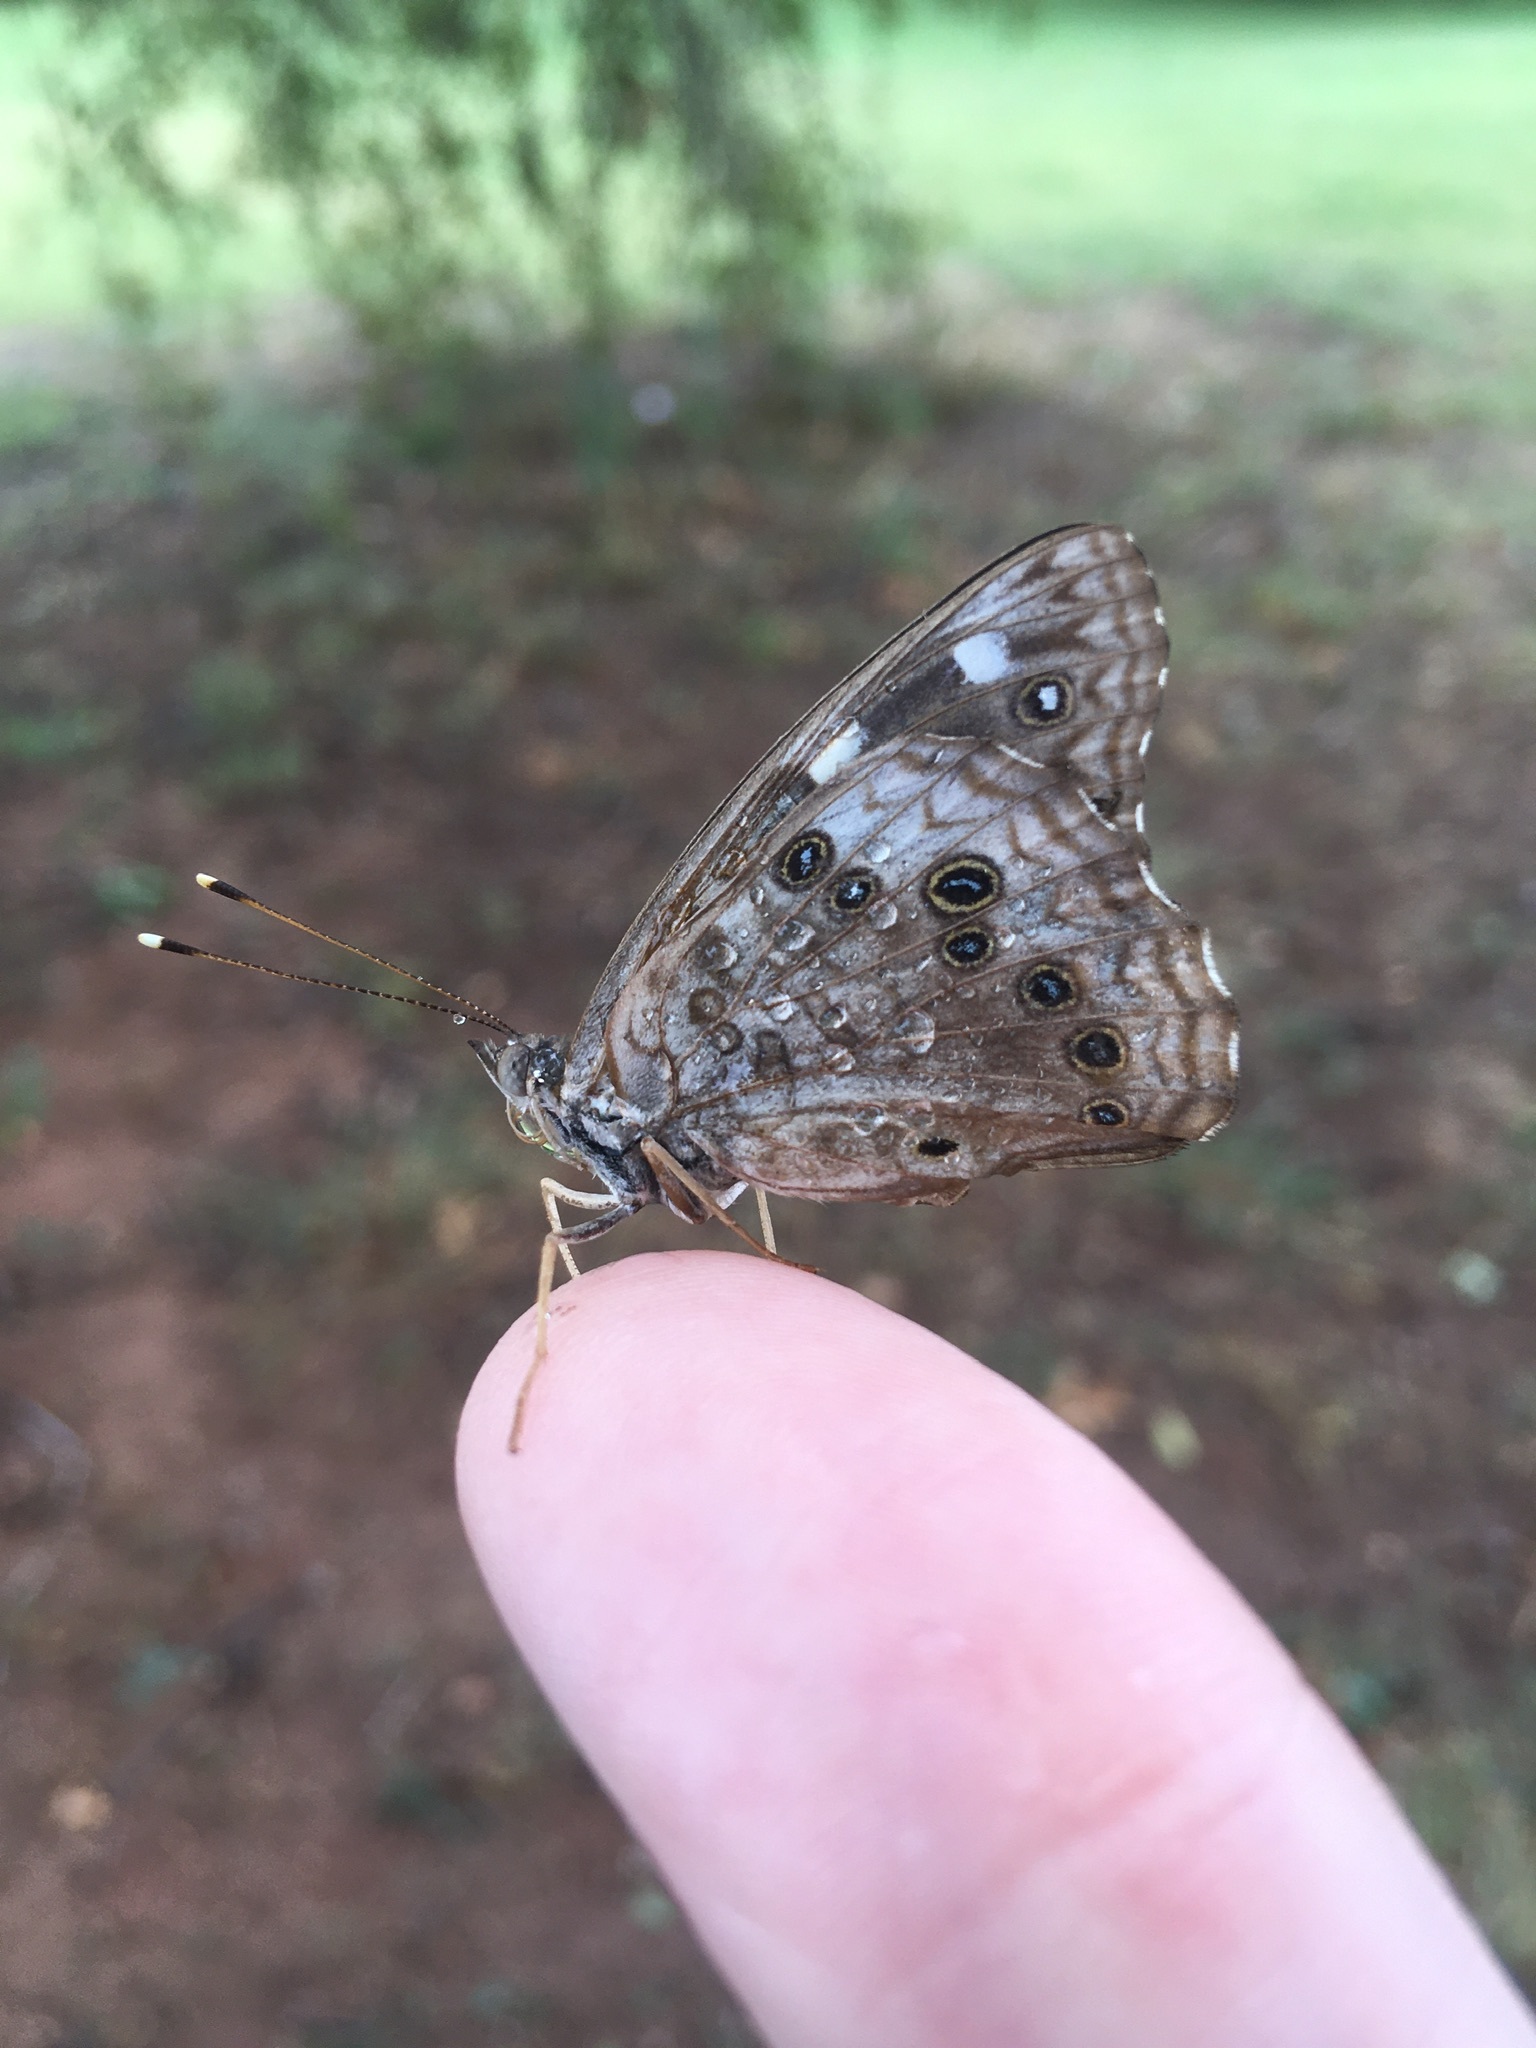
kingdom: Animalia
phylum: Arthropoda
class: Insecta
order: Lepidoptera
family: Nymphalidae
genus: Asterocampa
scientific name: Asterocampa celtis
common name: Hackberry emperor
